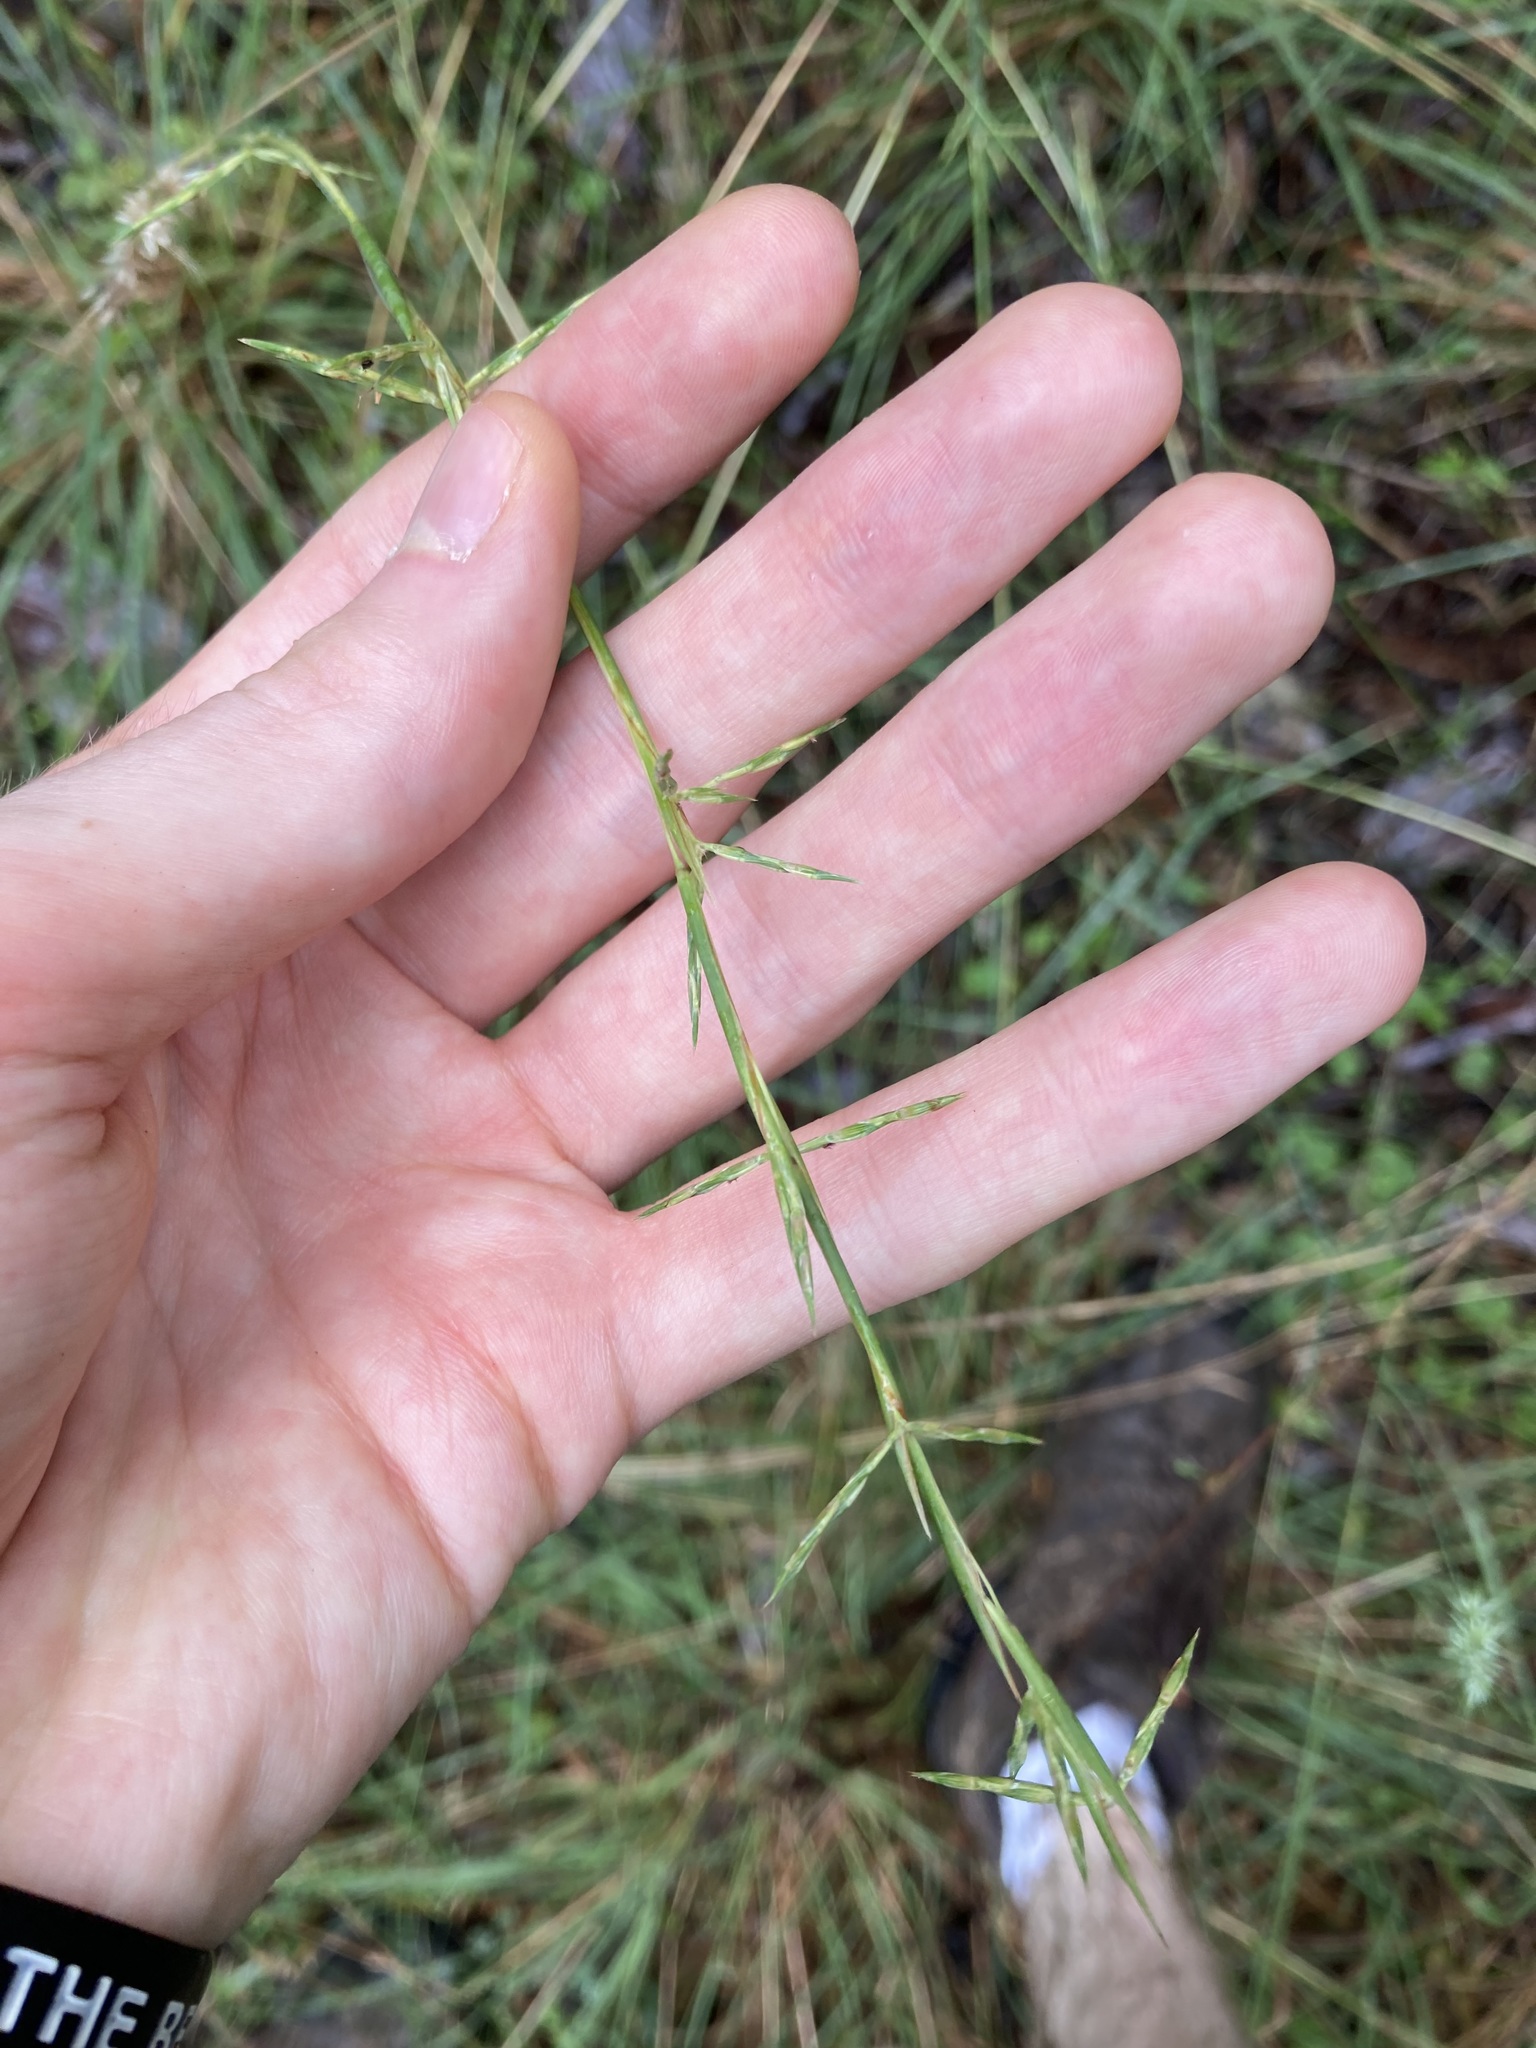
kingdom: Plantae
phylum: Tracheophyta
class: Liliopsida
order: Poales
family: Poaceae
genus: Cymbopogon
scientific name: Cymbopogon refractus
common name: Barbwire grass
